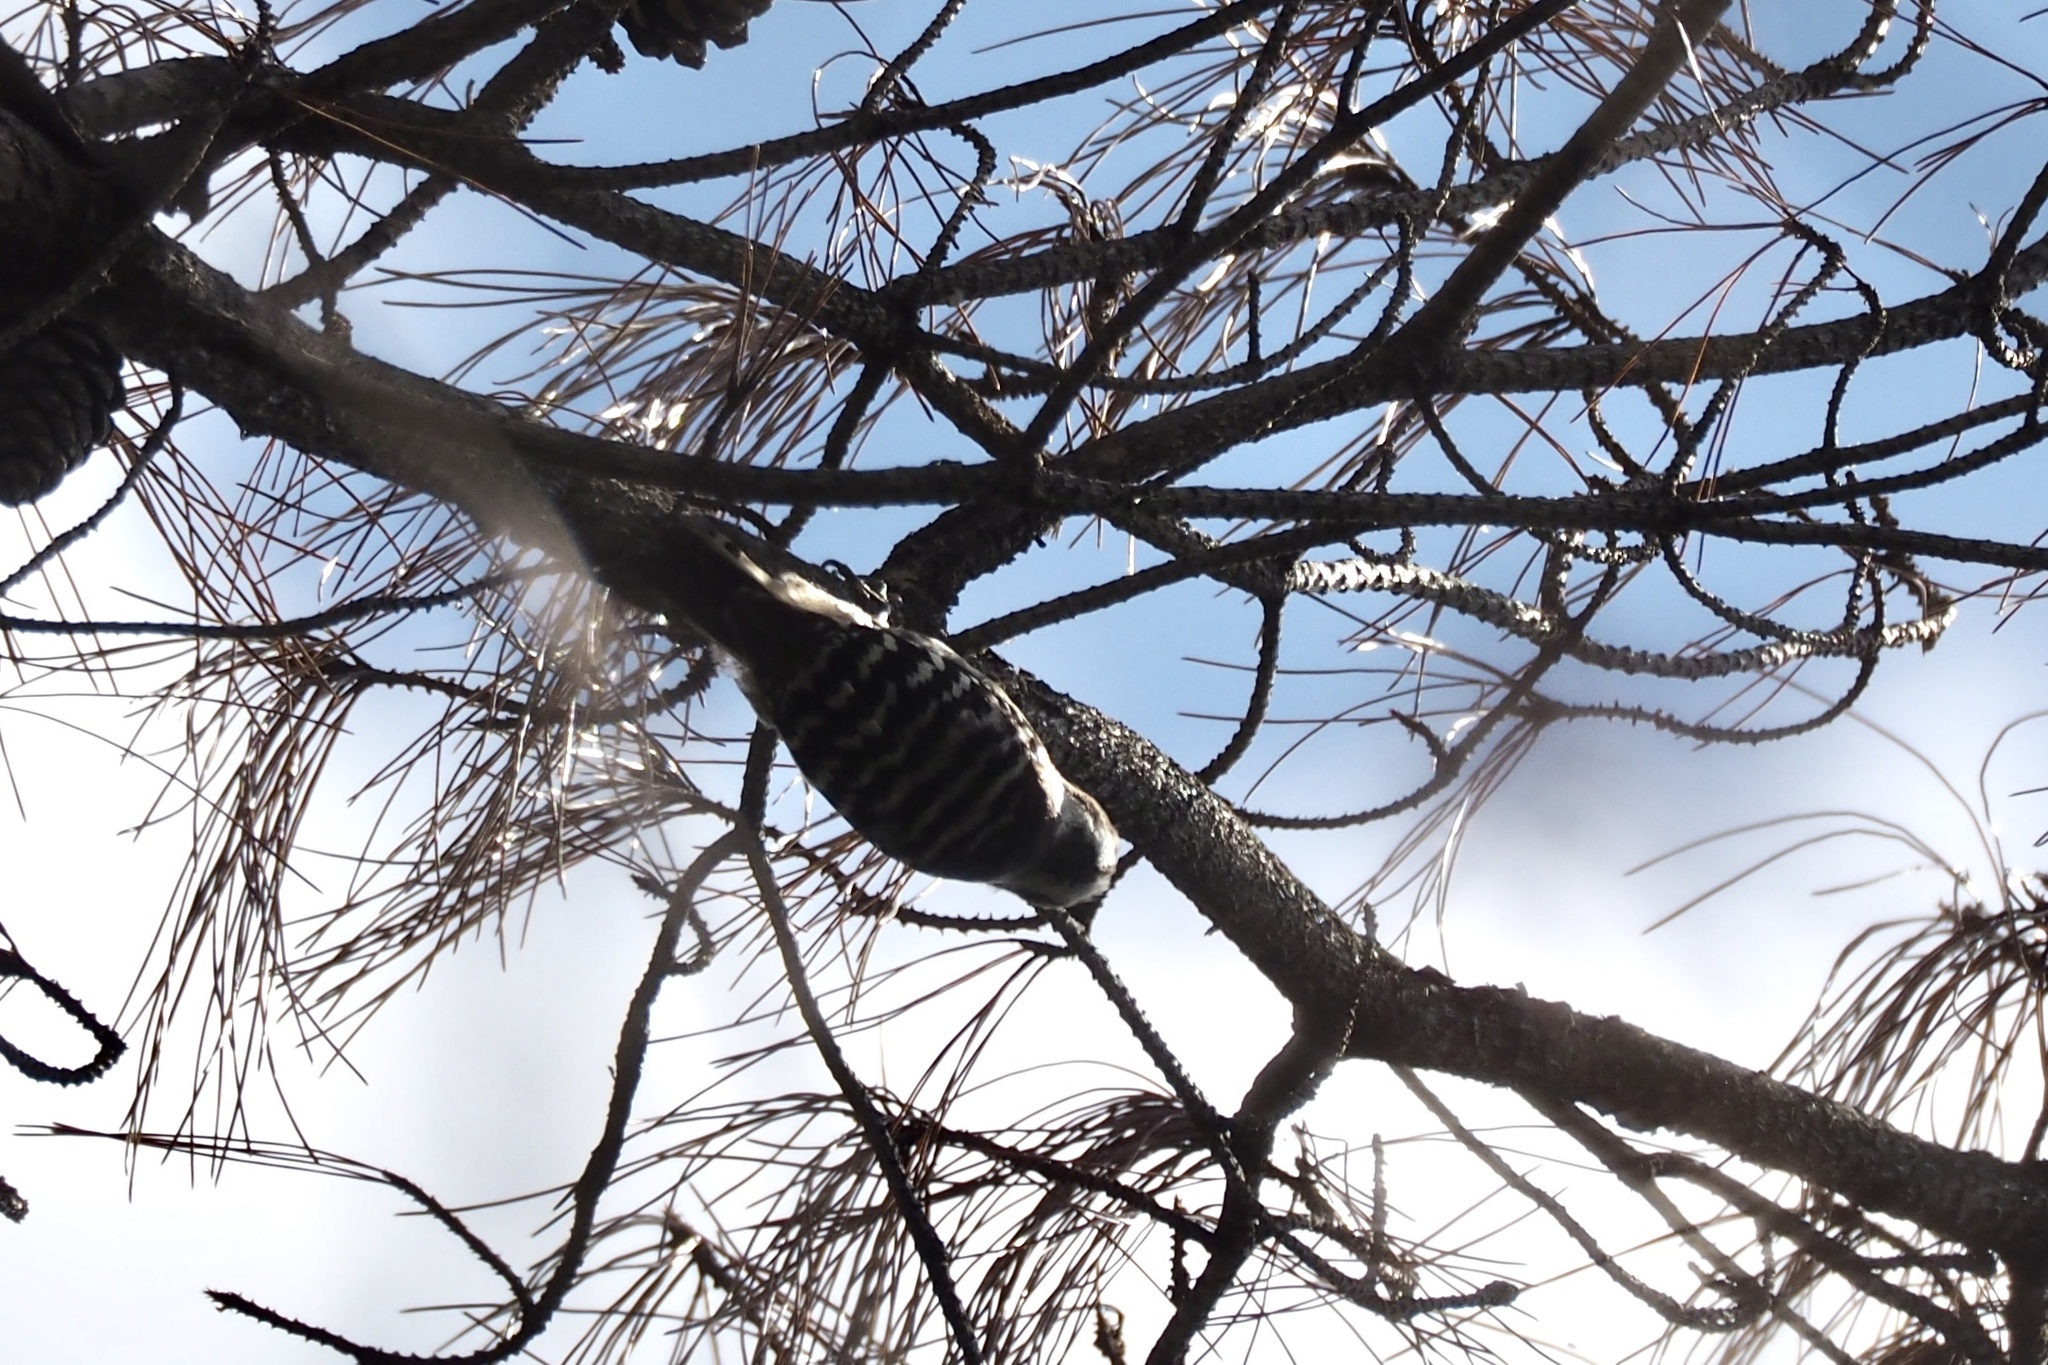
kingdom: Animalia
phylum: Chordata
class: Aves
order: Piciformes
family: Picidae
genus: Yungipicus
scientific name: Yungipicus kizuki
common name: Japanese pygmy woodpecker
